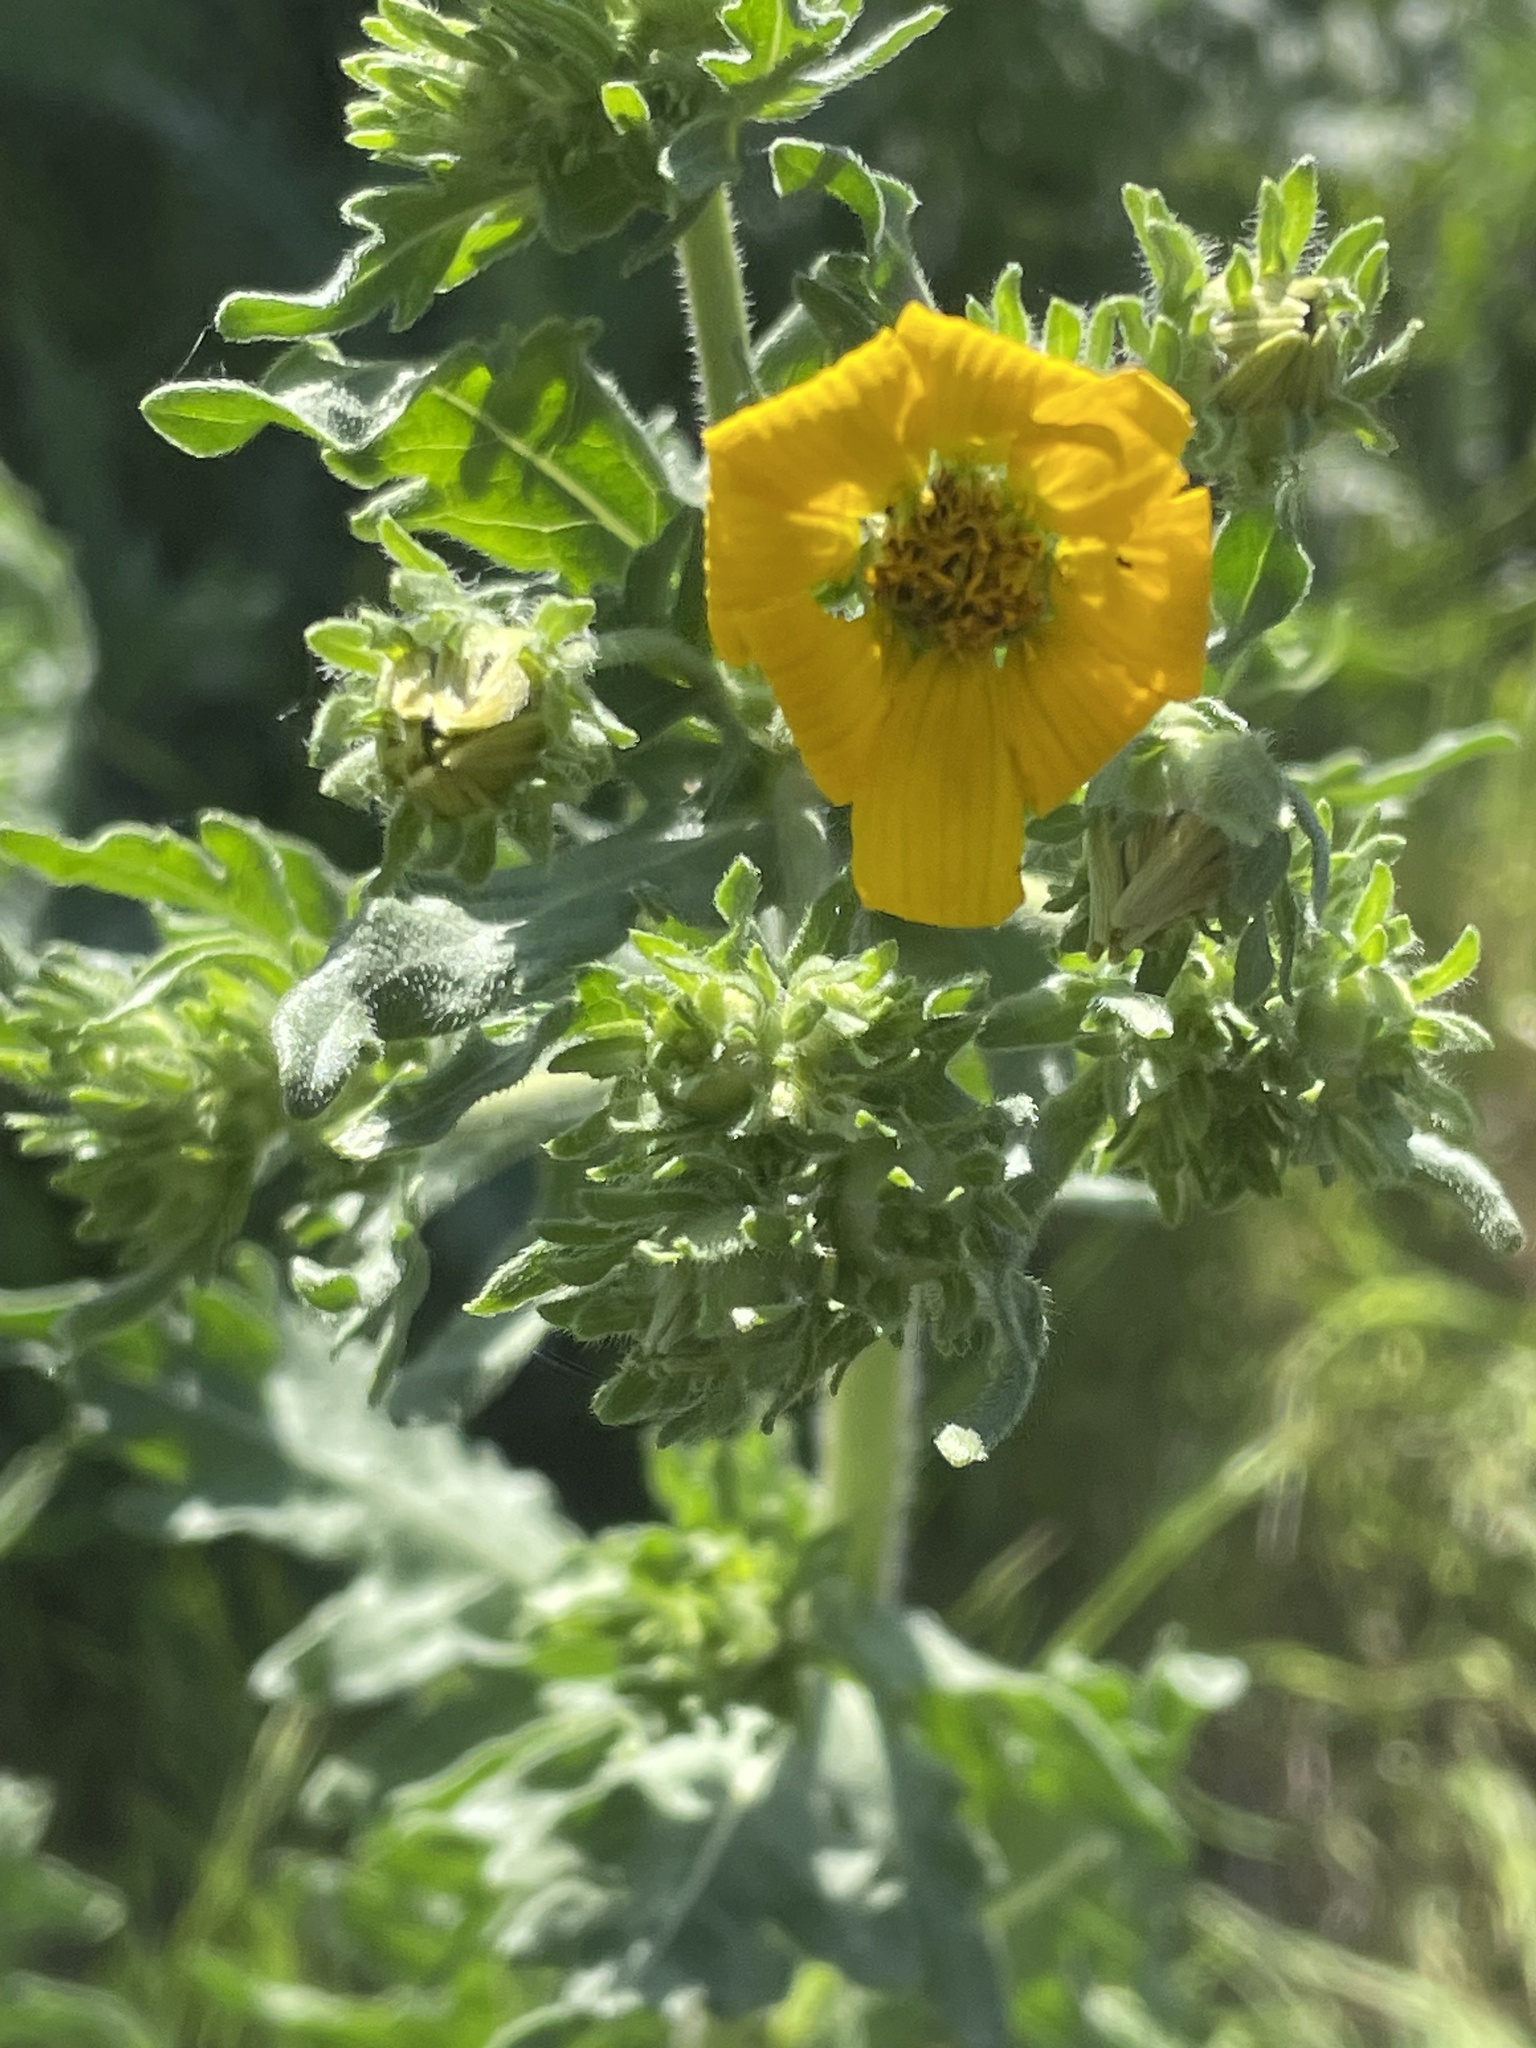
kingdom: Plantae
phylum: Tracheophyta
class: Magnoliopsida
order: Asterales
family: Asteraceae
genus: Engelmannia
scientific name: Engelmannia peristenia
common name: Engelmann's daisy
